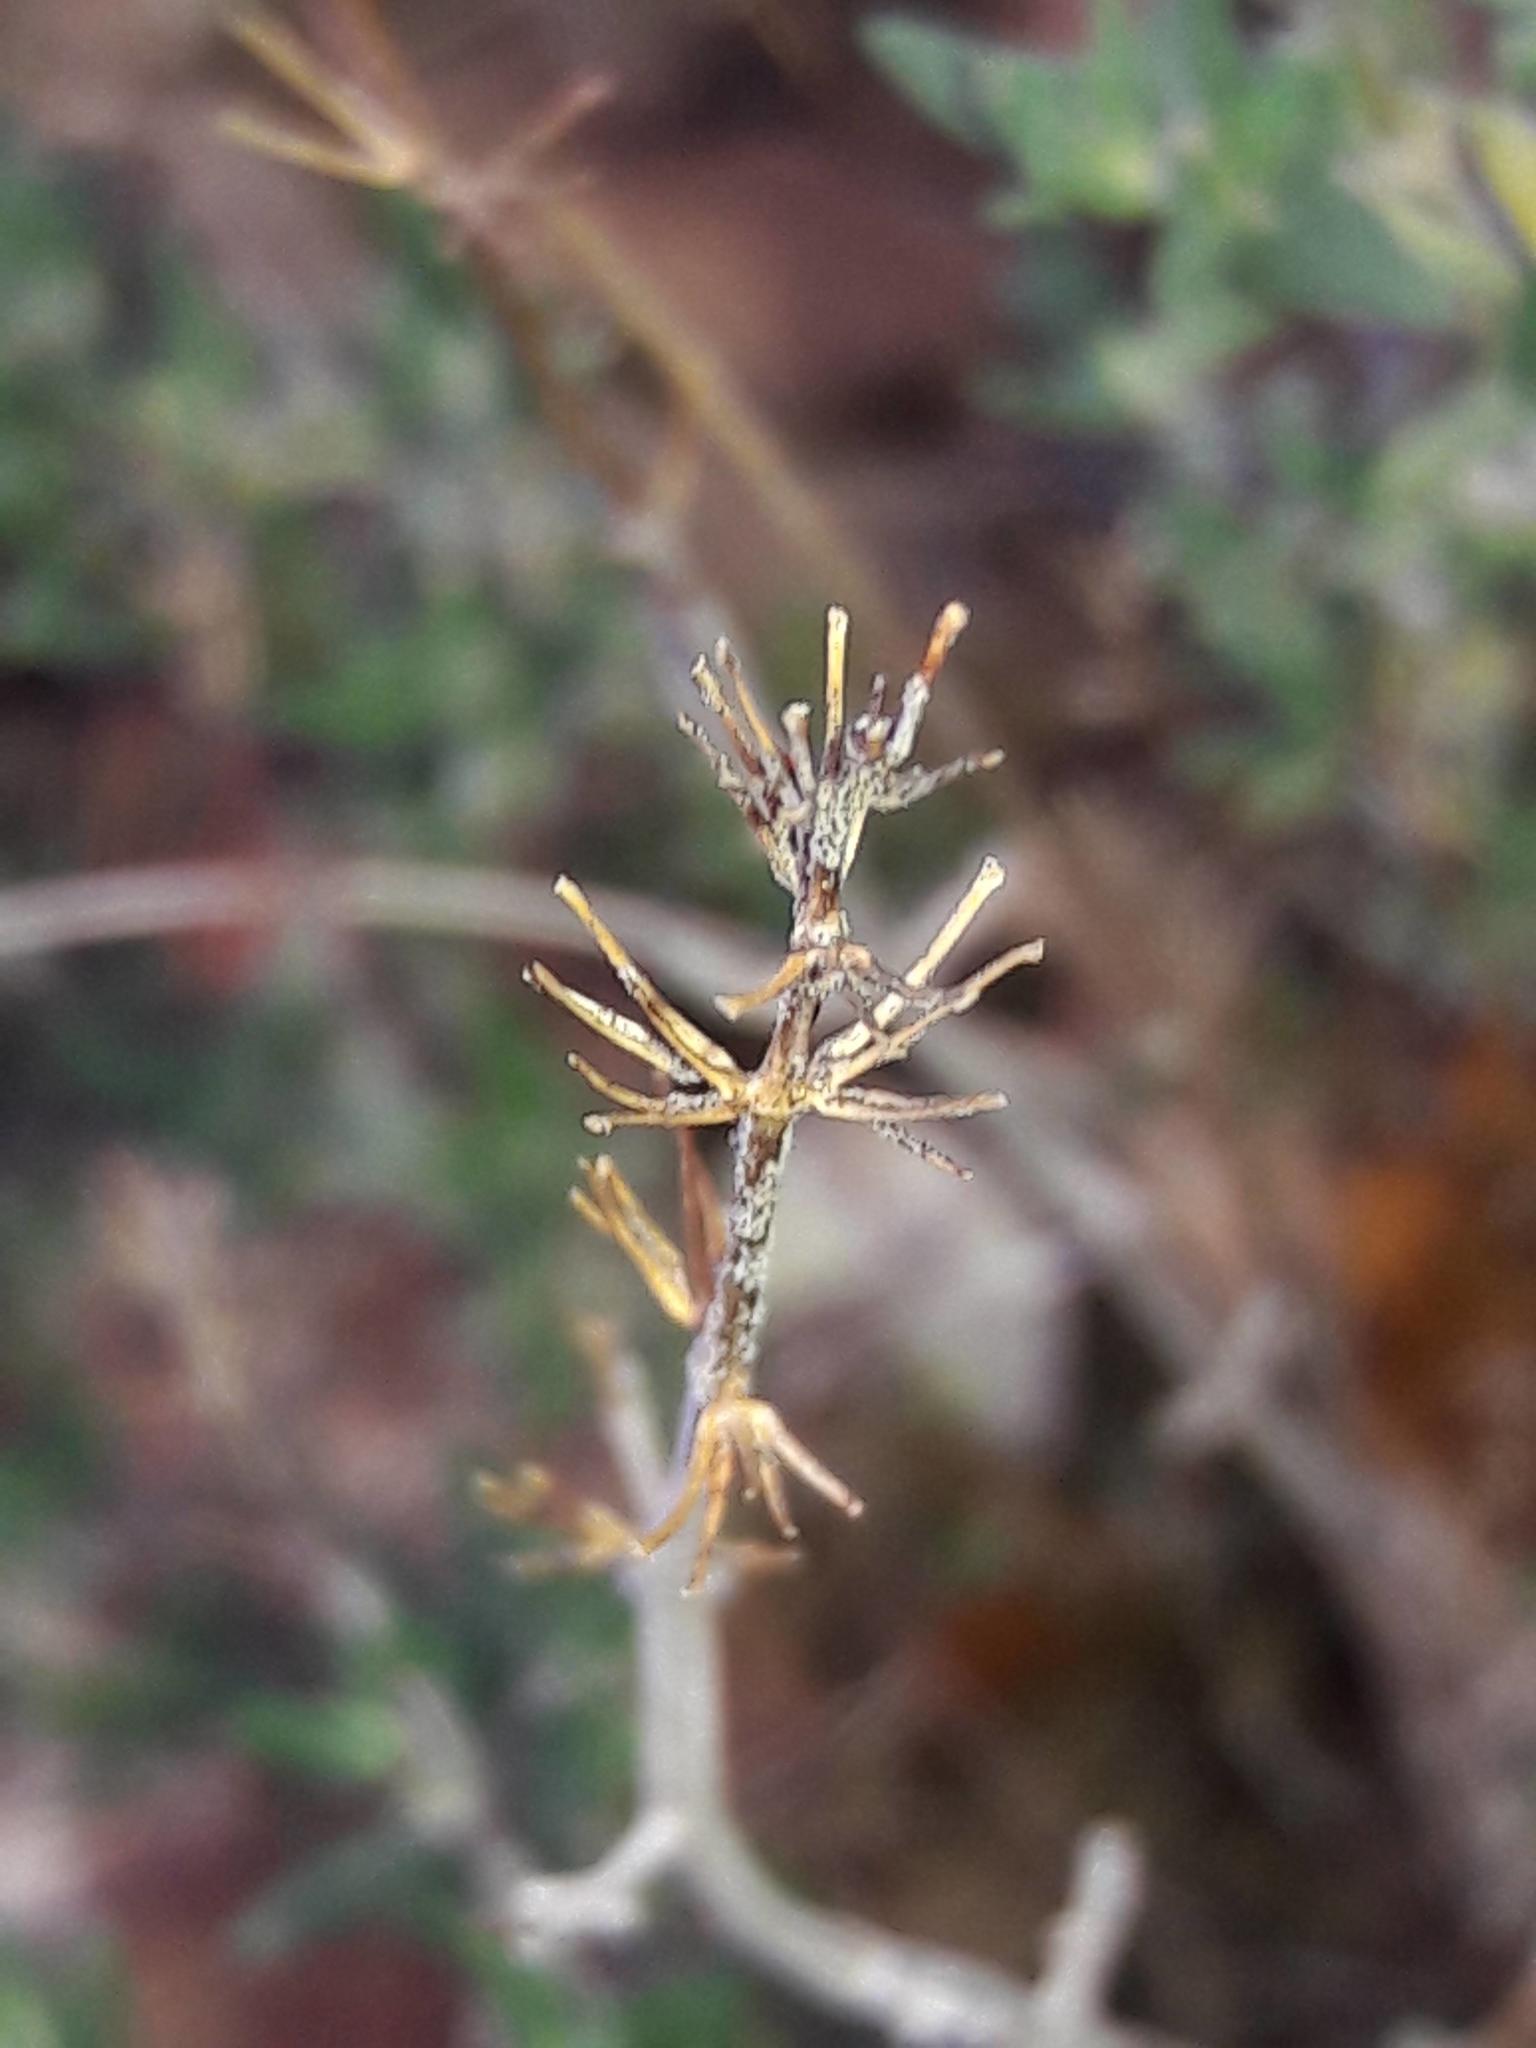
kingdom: Plantae
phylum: Tracheophyta
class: Magnoliopsida
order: Lamiales
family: Lamiaceae
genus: Thymus
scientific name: Thymus vulgaris
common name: Garden thyme
